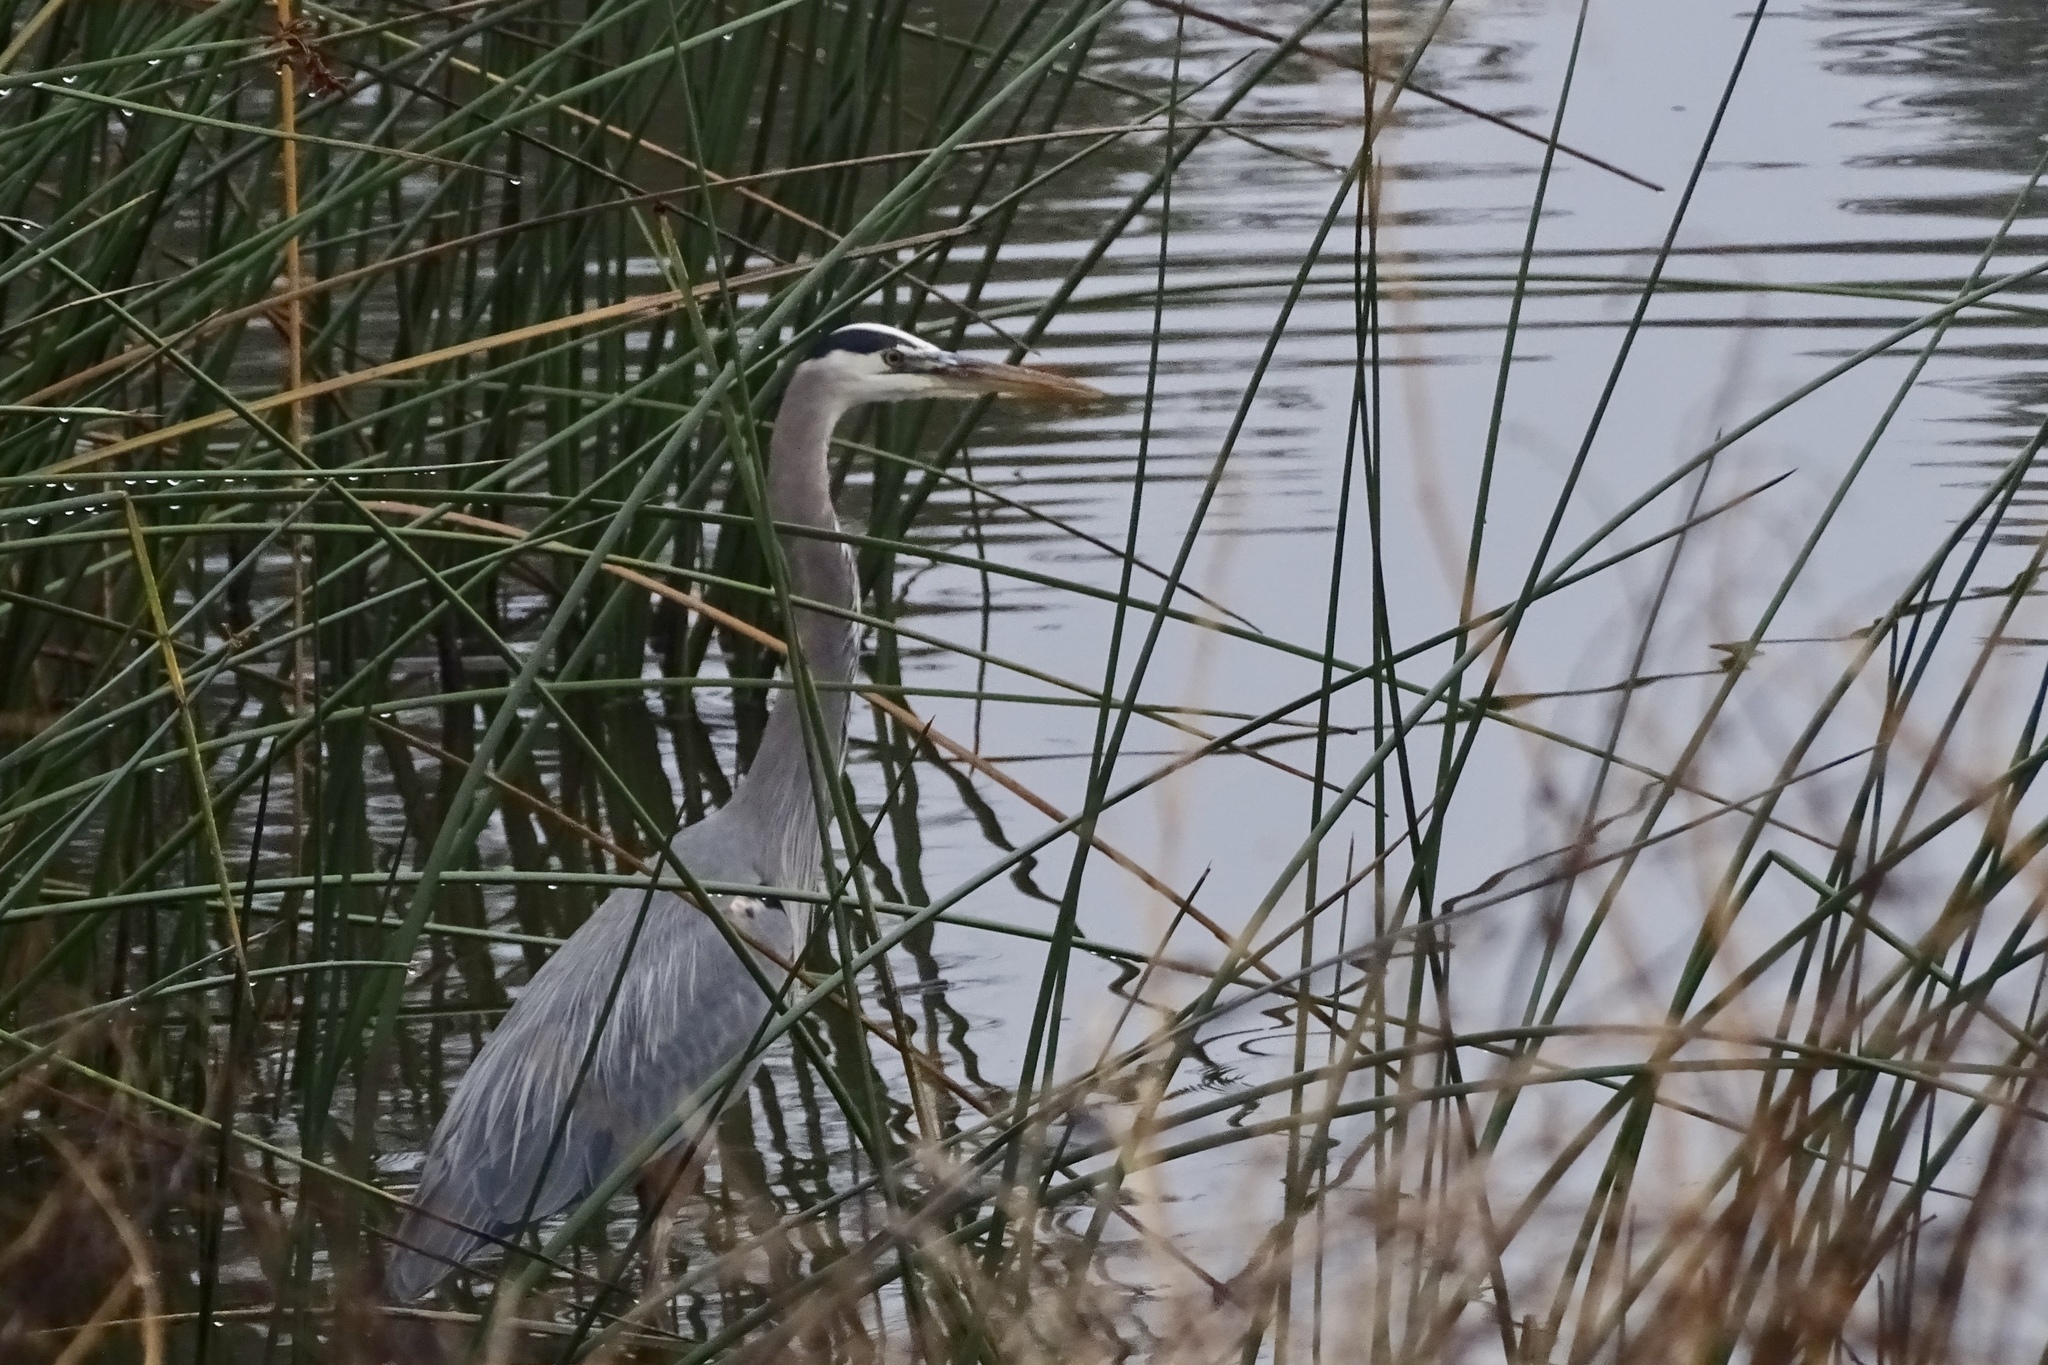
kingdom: Animalia
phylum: Chordata
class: Aves
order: Pelecaniformes
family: Ardeidae
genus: Ardea
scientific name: Ardea herodias
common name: Great blue heron
